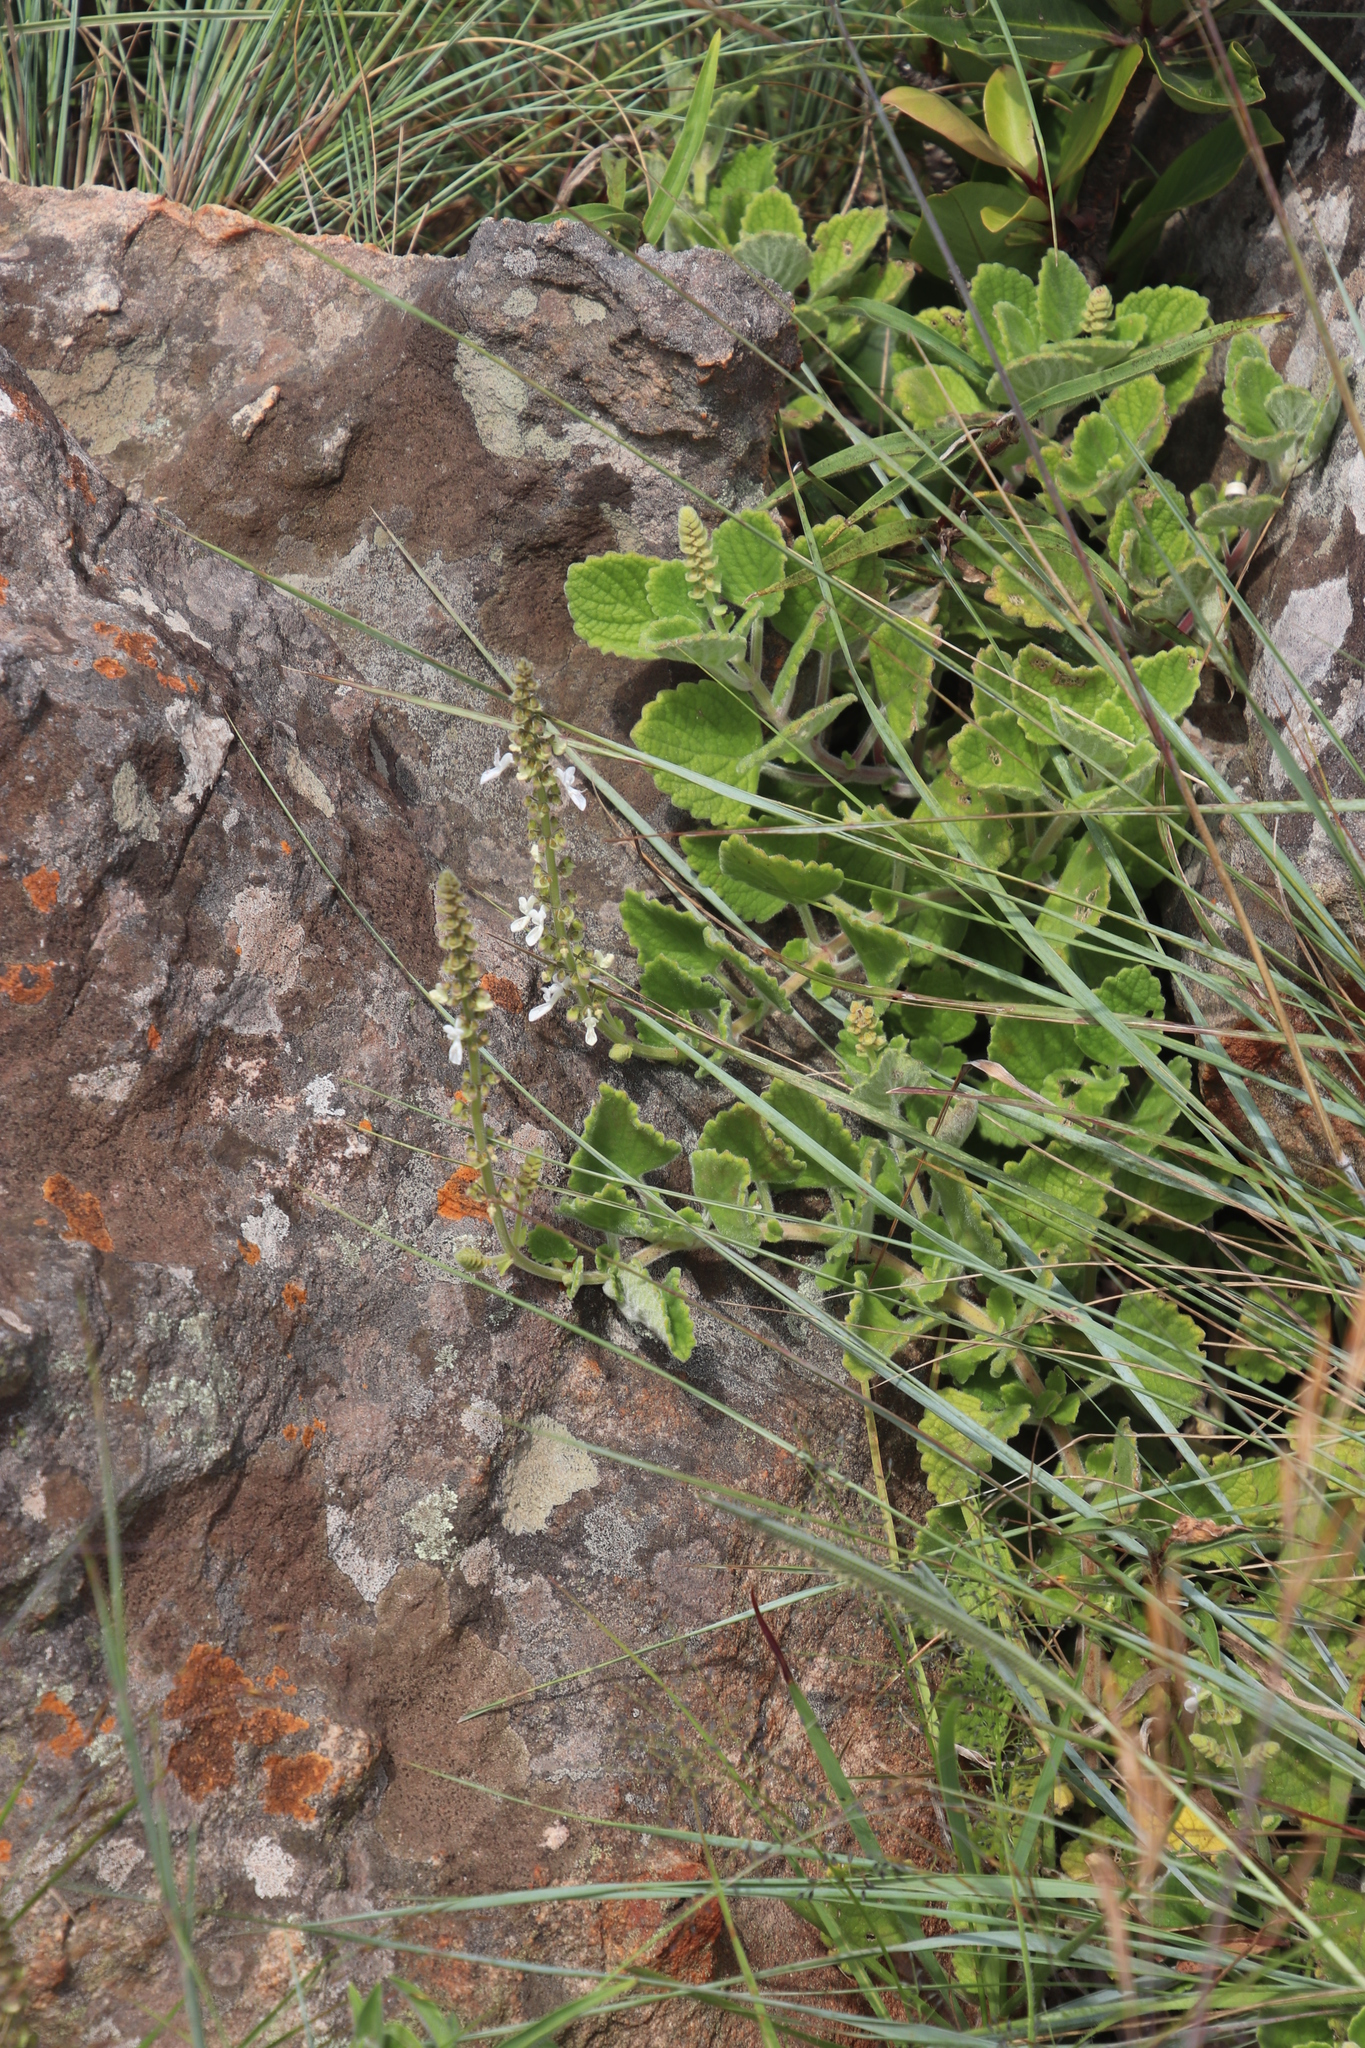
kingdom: Plantae
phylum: Tracheophyta
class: Magnoliopsida
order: Lamiales
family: Lamiaceae
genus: Coleus
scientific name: Coleus grandidentatus
